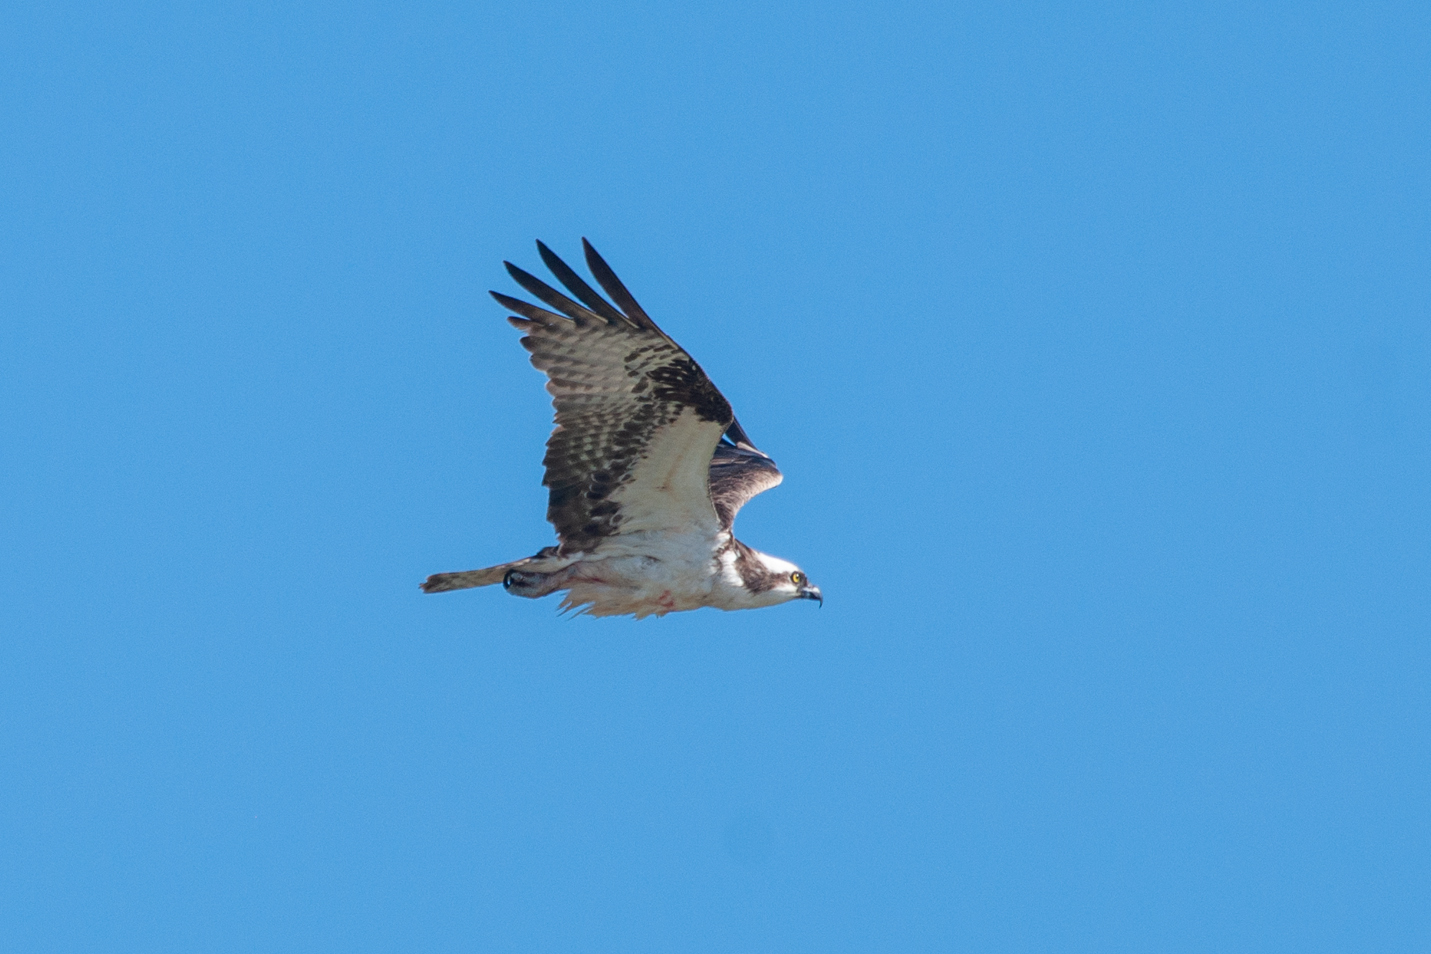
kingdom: Animalia
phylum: Chordata
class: Aves
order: Accipitriformes
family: Pandionidae
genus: Pandion
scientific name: Pandion haliaetus
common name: Osprey
